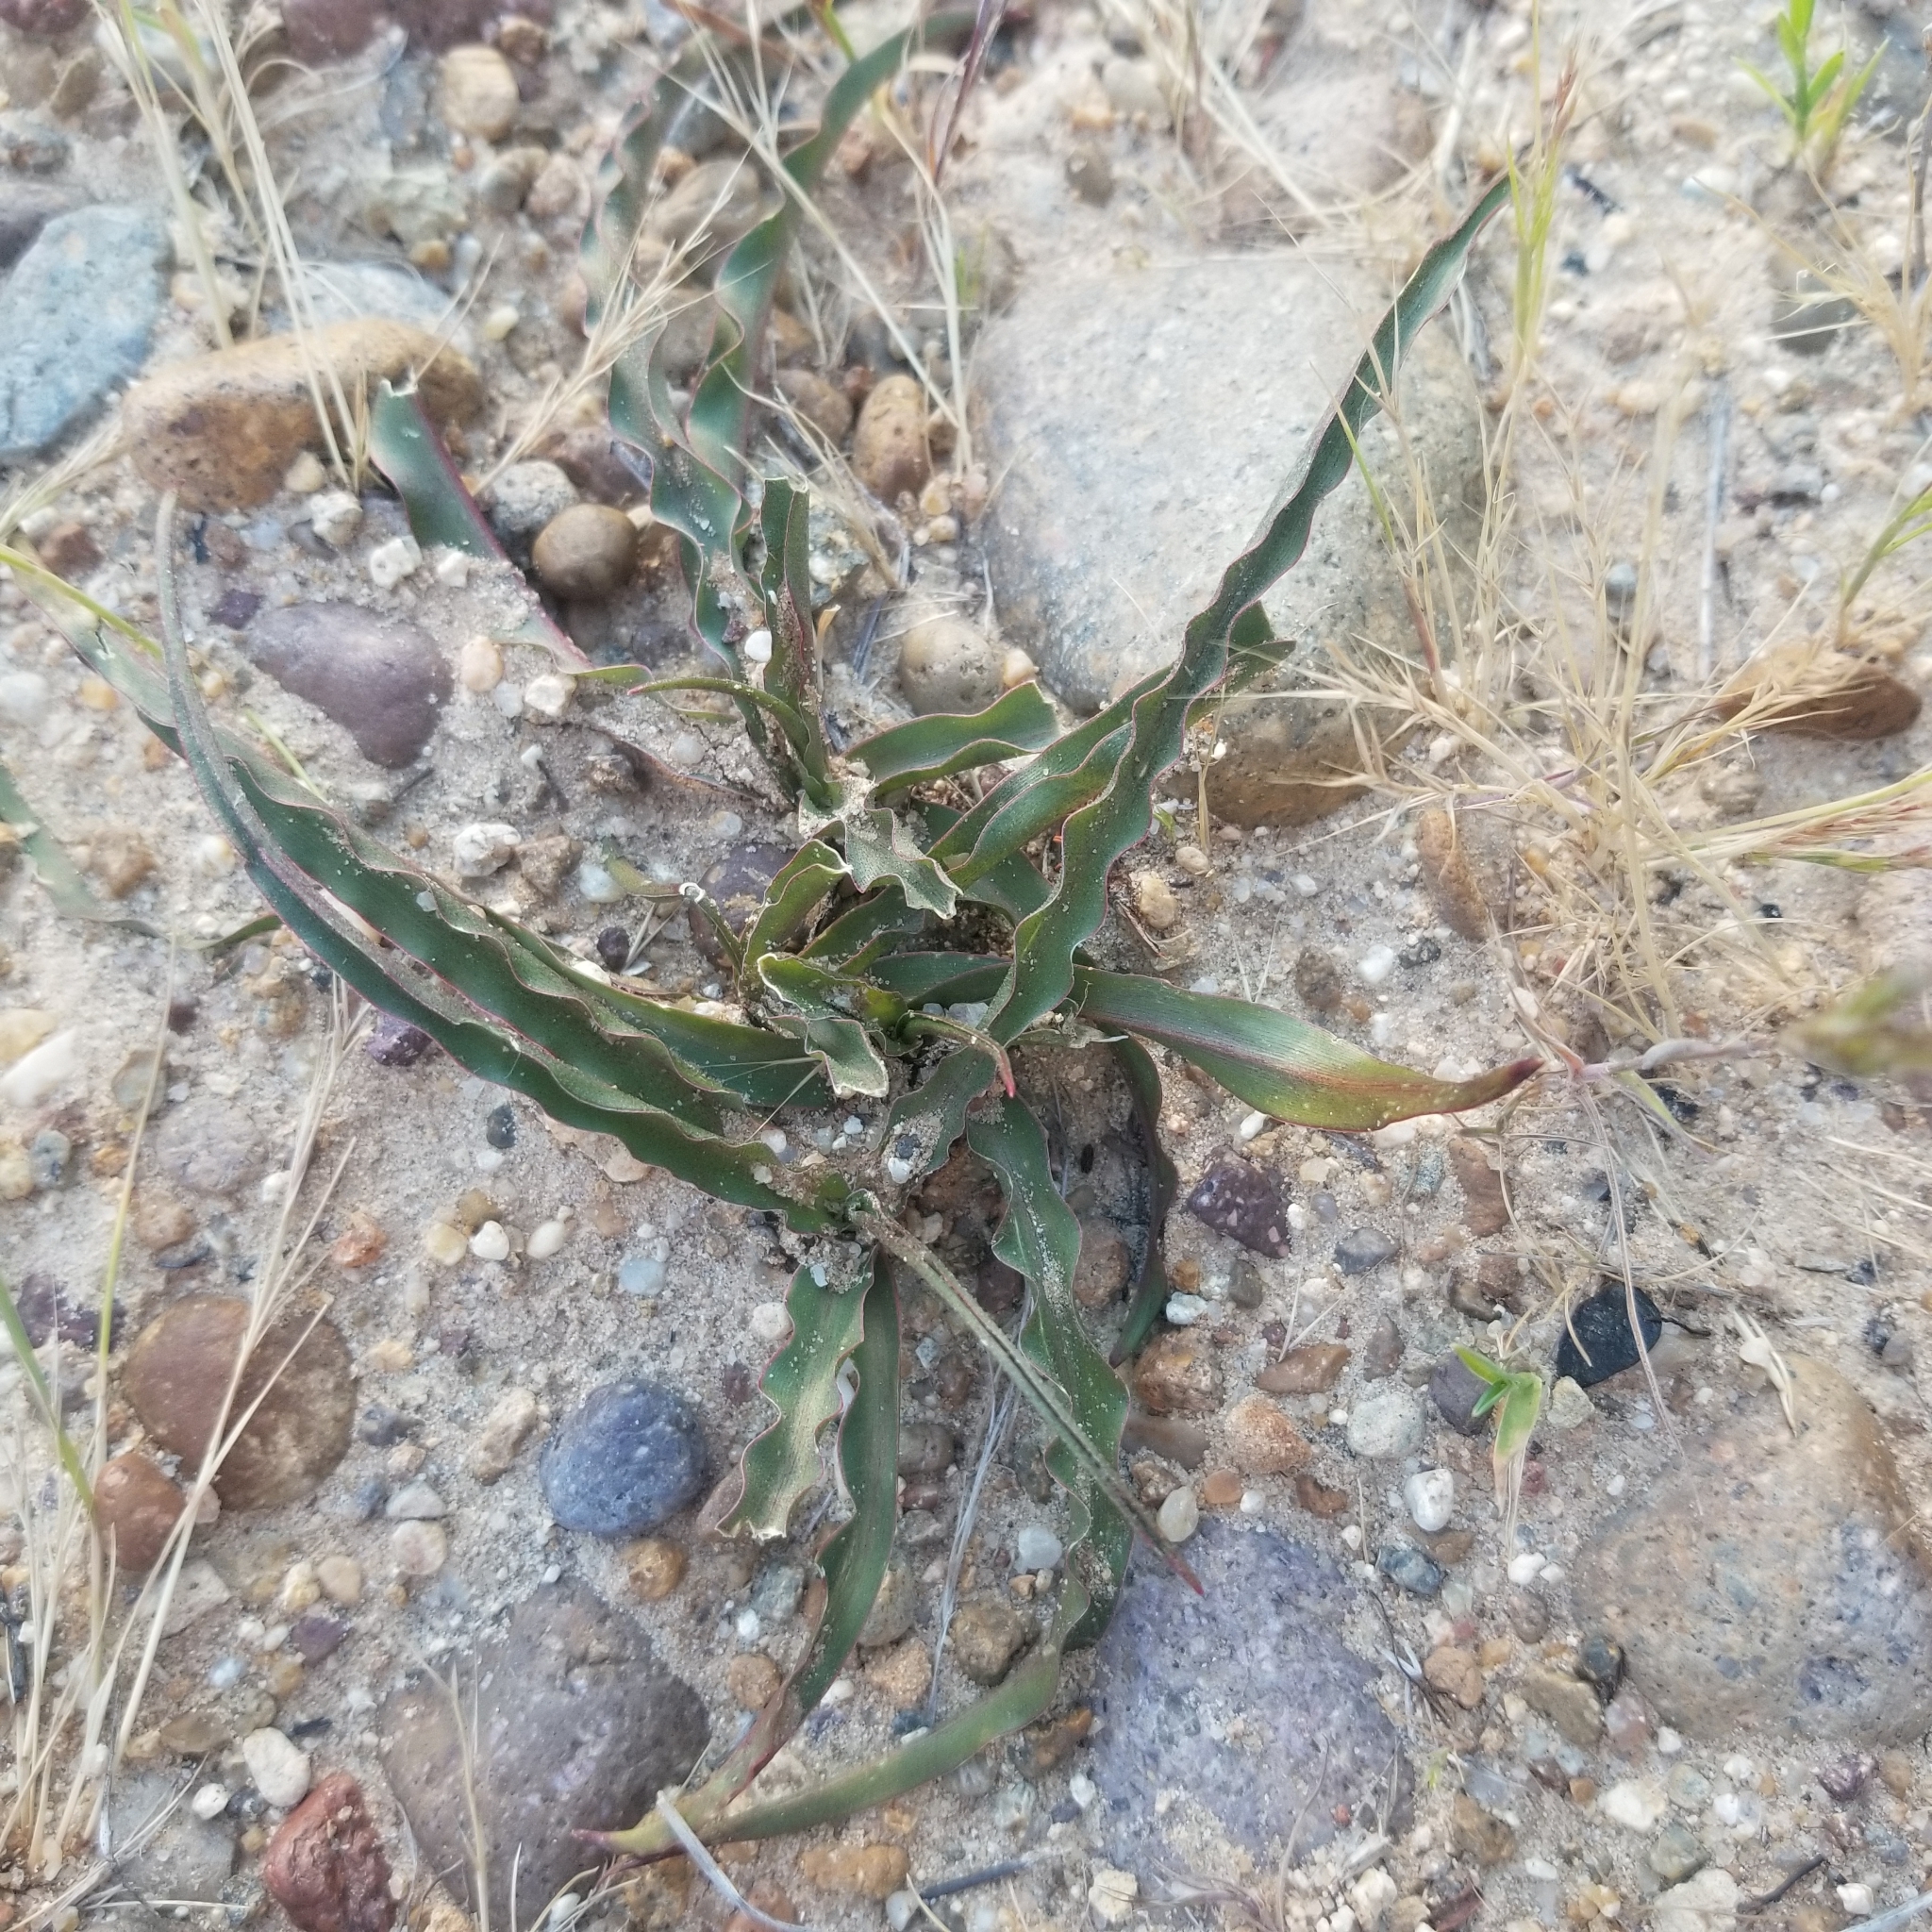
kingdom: Plantae
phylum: Tracheophyta
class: Liliopsida
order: Asparagales
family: Asparagaceae
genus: Hooveria
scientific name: Hooveria parviflora
